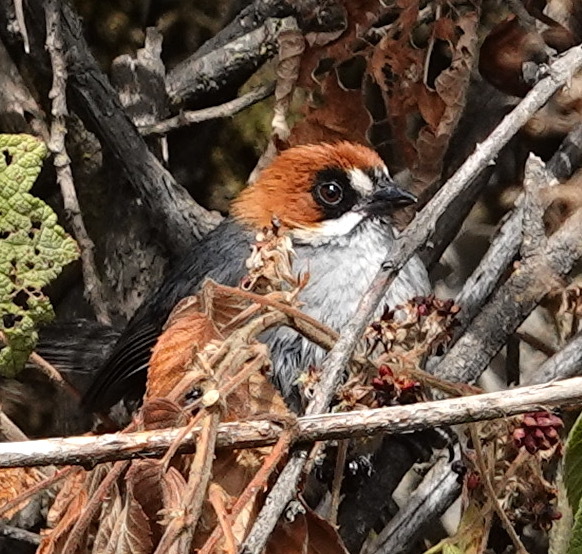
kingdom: Animalia
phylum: Chordata
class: Aves
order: Passeriformes
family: Passerellidae
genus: Atlapetes
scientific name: Atlapetes forbesi
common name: Apurimac brushfinch
